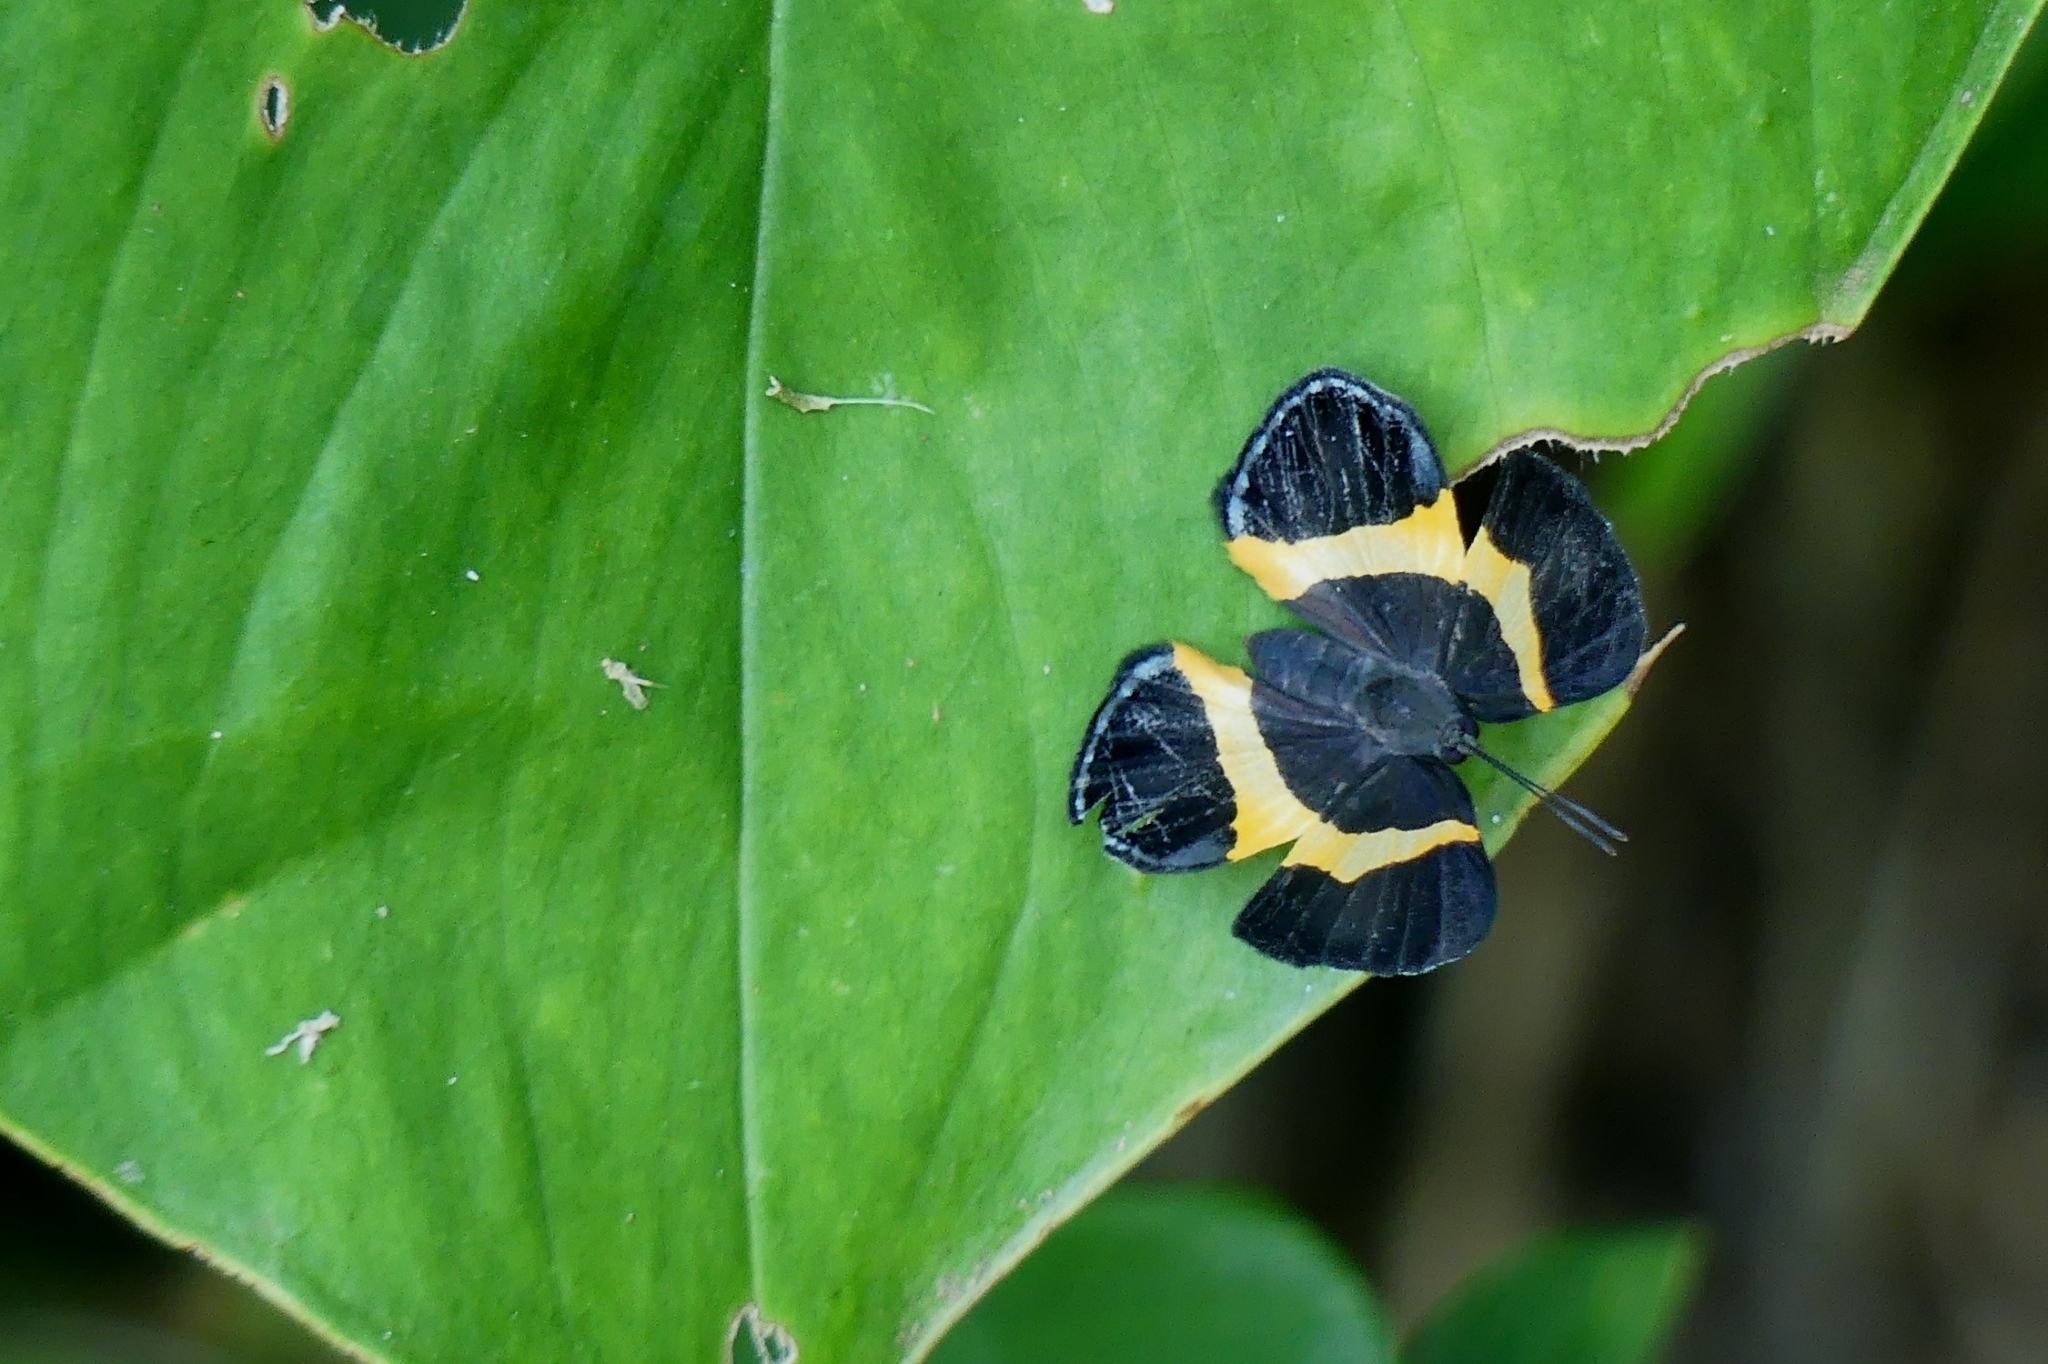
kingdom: Animalia
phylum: Arthropoda
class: Insecta
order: Lepidoptera
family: Riodinidae
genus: Notheme
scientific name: Notheme eumeus
